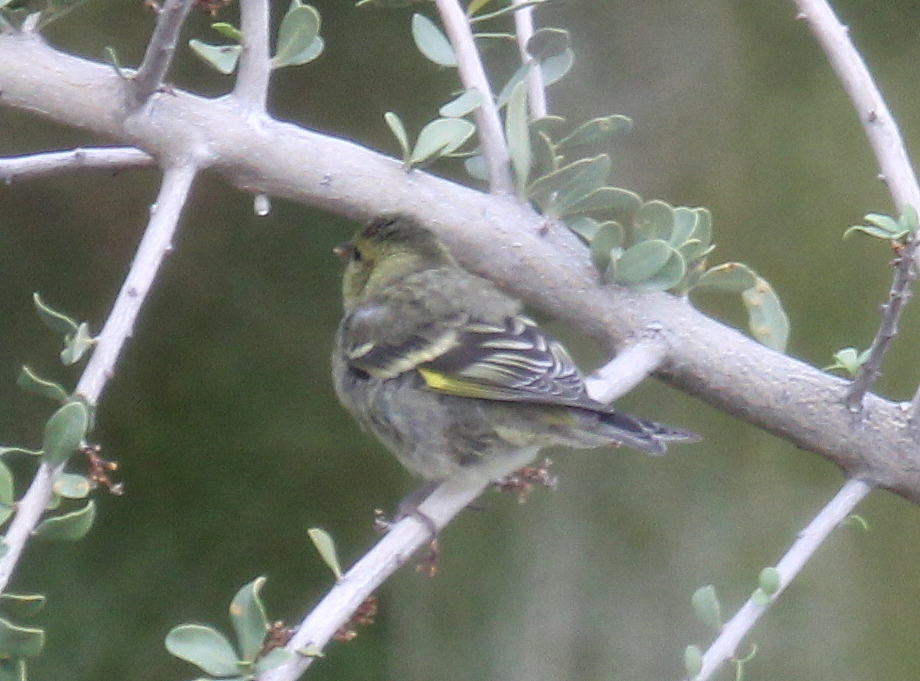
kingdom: Animalia
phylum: Chordata
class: Aves
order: Passeriformes
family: Fringillidae
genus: Spinus
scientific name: Spinus barbatus
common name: Black-chinned siskin
